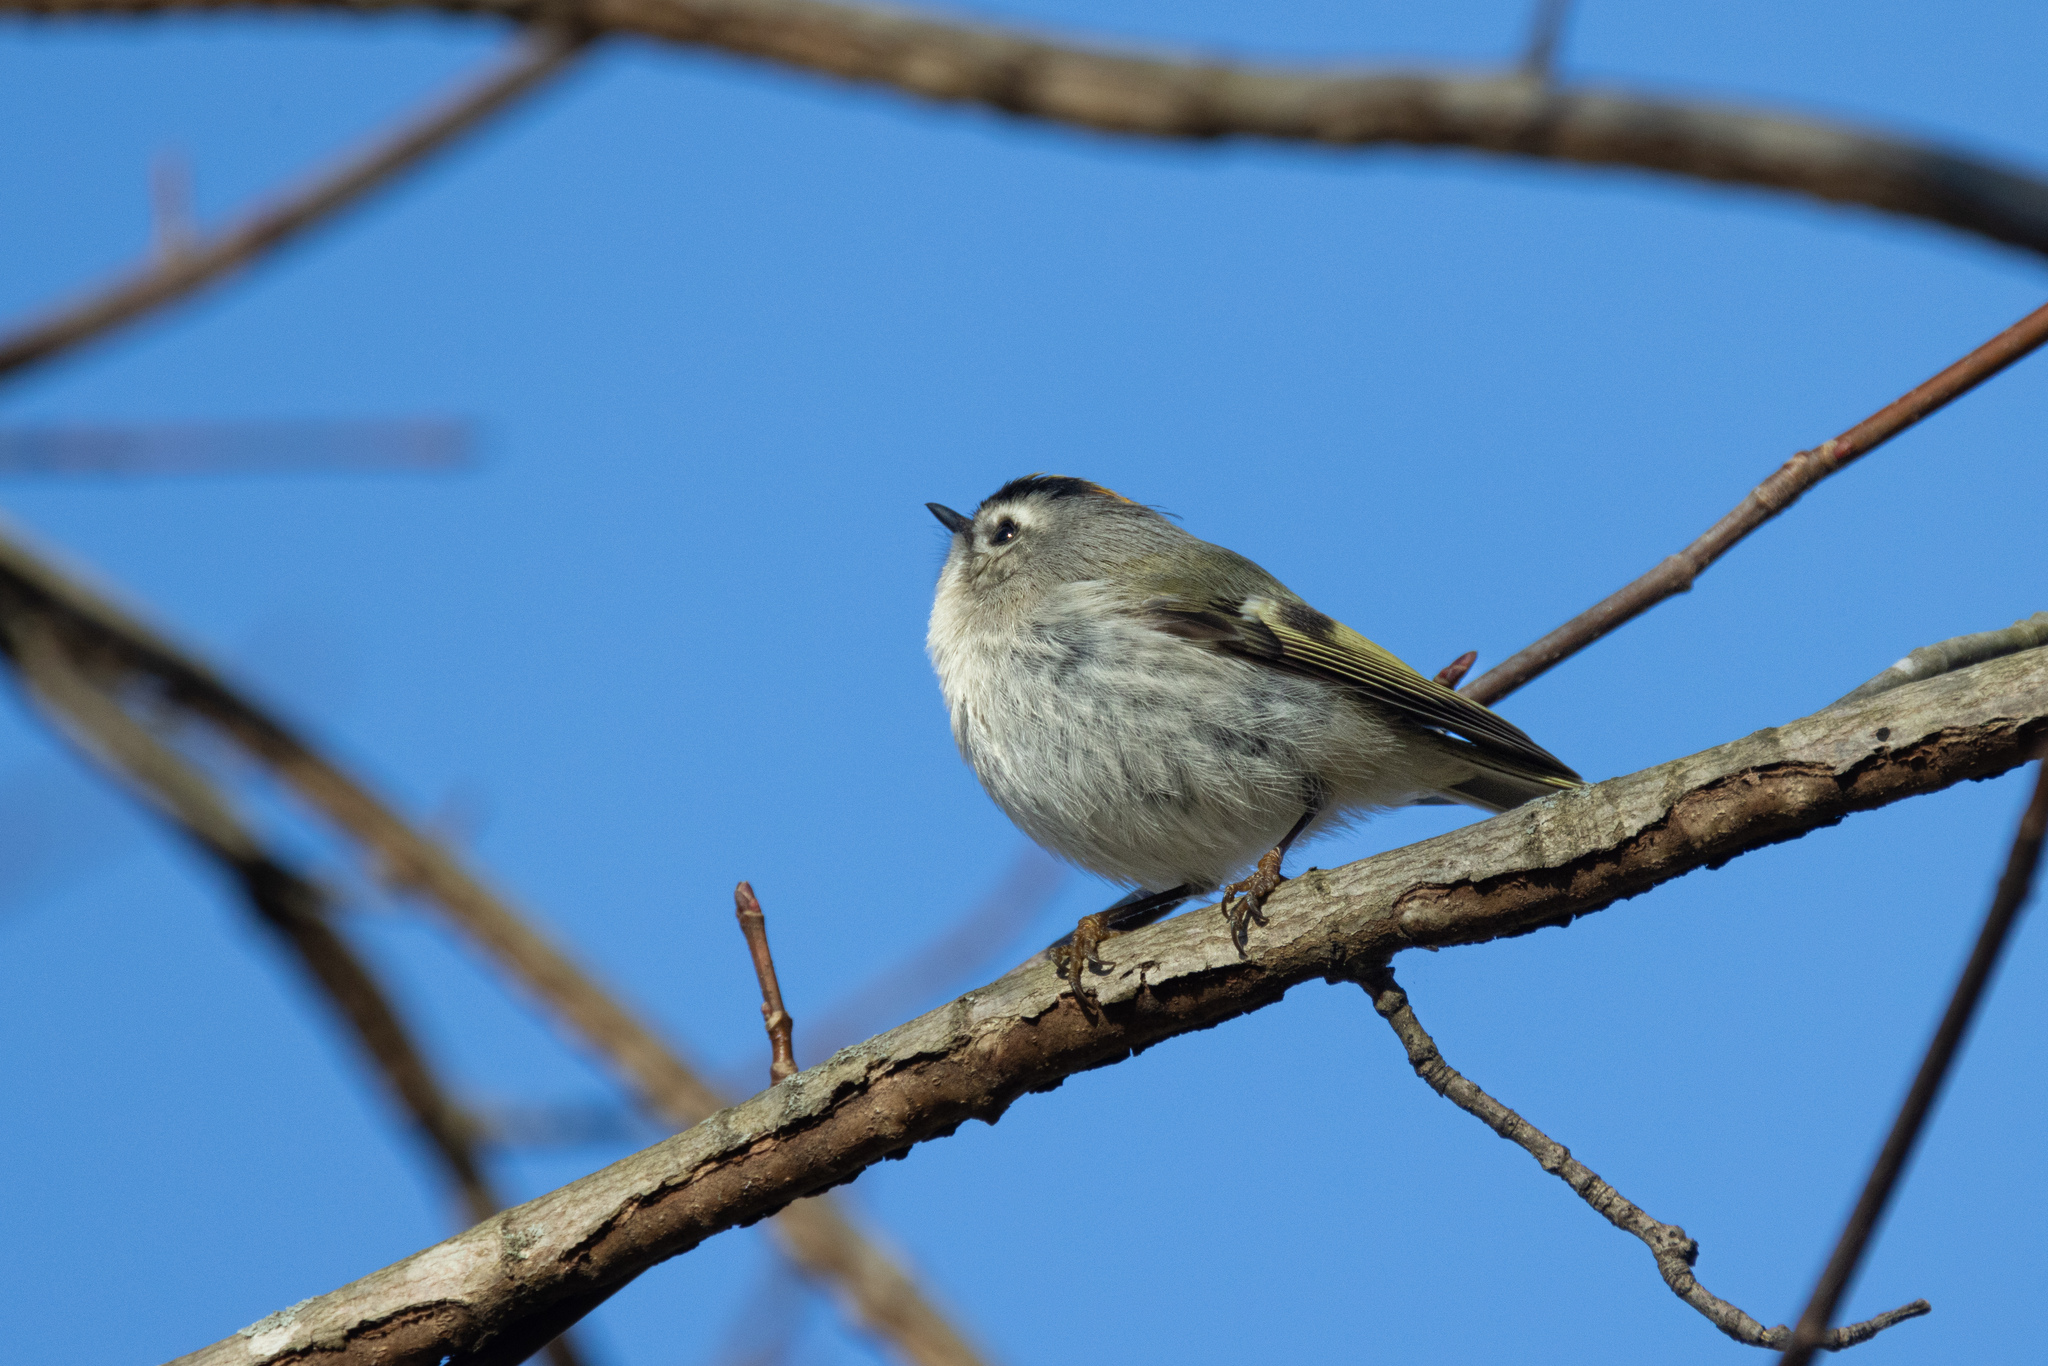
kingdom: Animalia
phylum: Chordata
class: Aves
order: Passeriformes
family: Regulidae
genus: Regulus
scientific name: Regulus satrapa
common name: Golden-crowned kinglet
